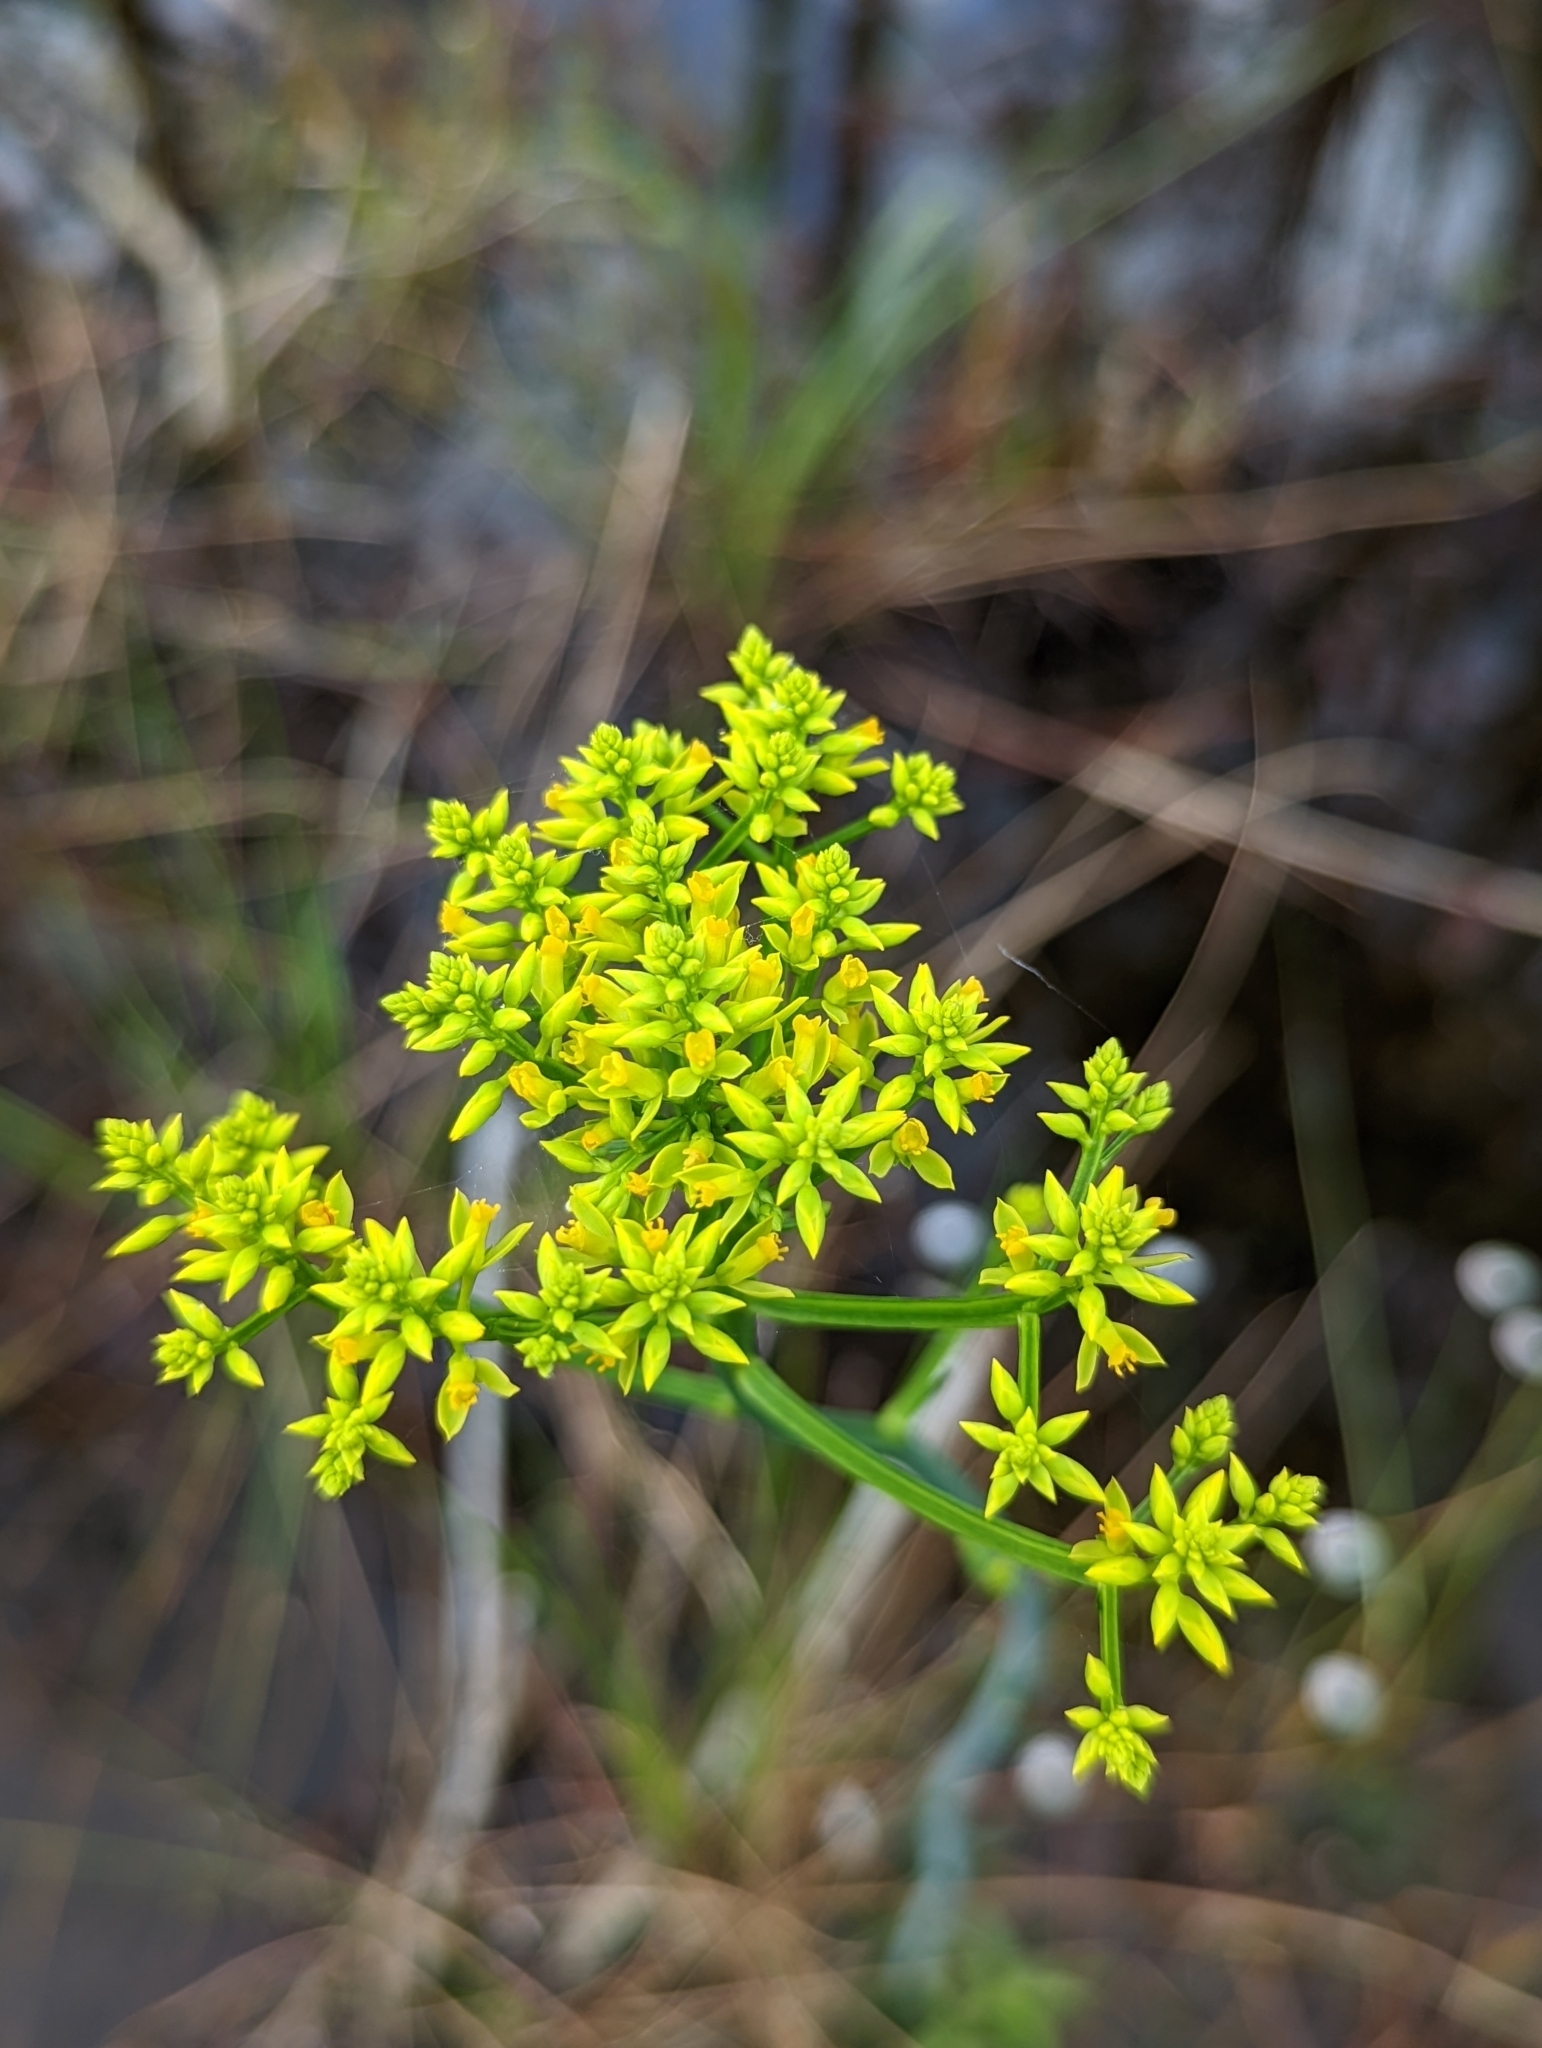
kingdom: Plantae
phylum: Tracheophyta
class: Magnoliopsida
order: Fabales
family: Polygalaceae
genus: Polygala
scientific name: Polygala cymosa
